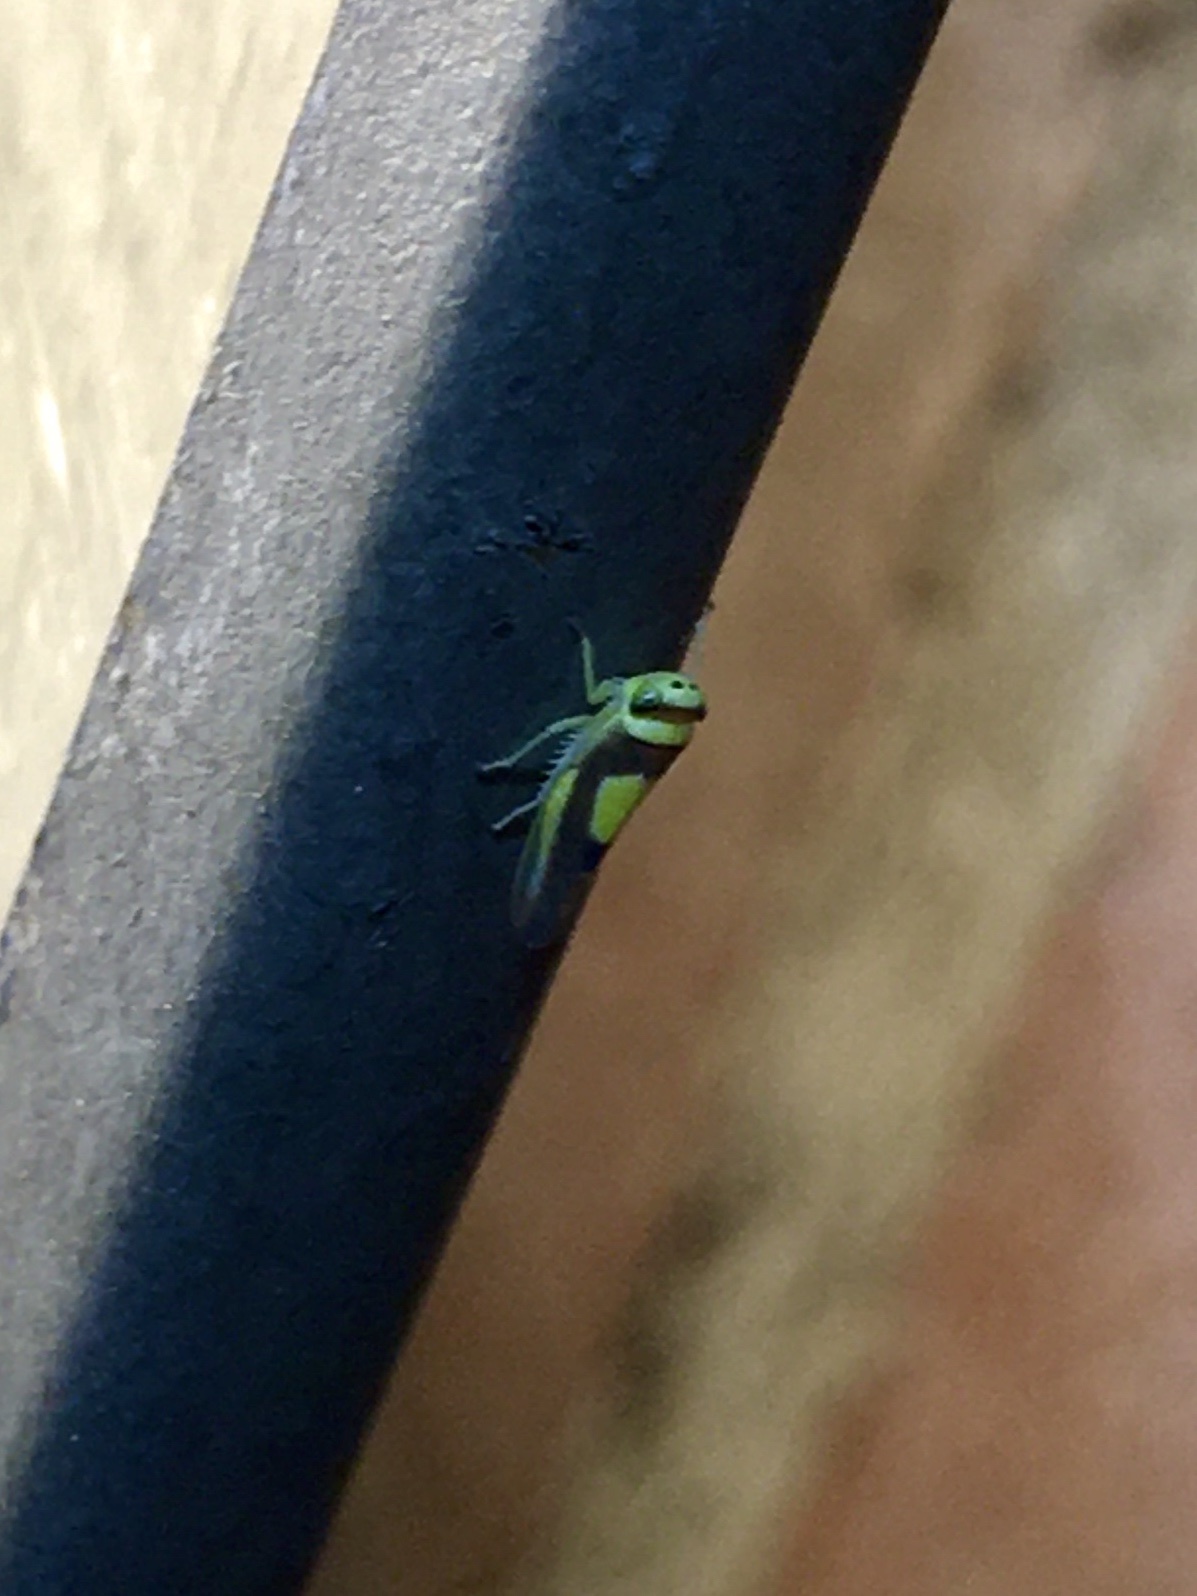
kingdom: Animalia
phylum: Arthropoda
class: Insecta
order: Hemiptera
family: Cicadellidae
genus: Colladonus
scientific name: Colladonus clitellarius
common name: The saddleback leafhopper
